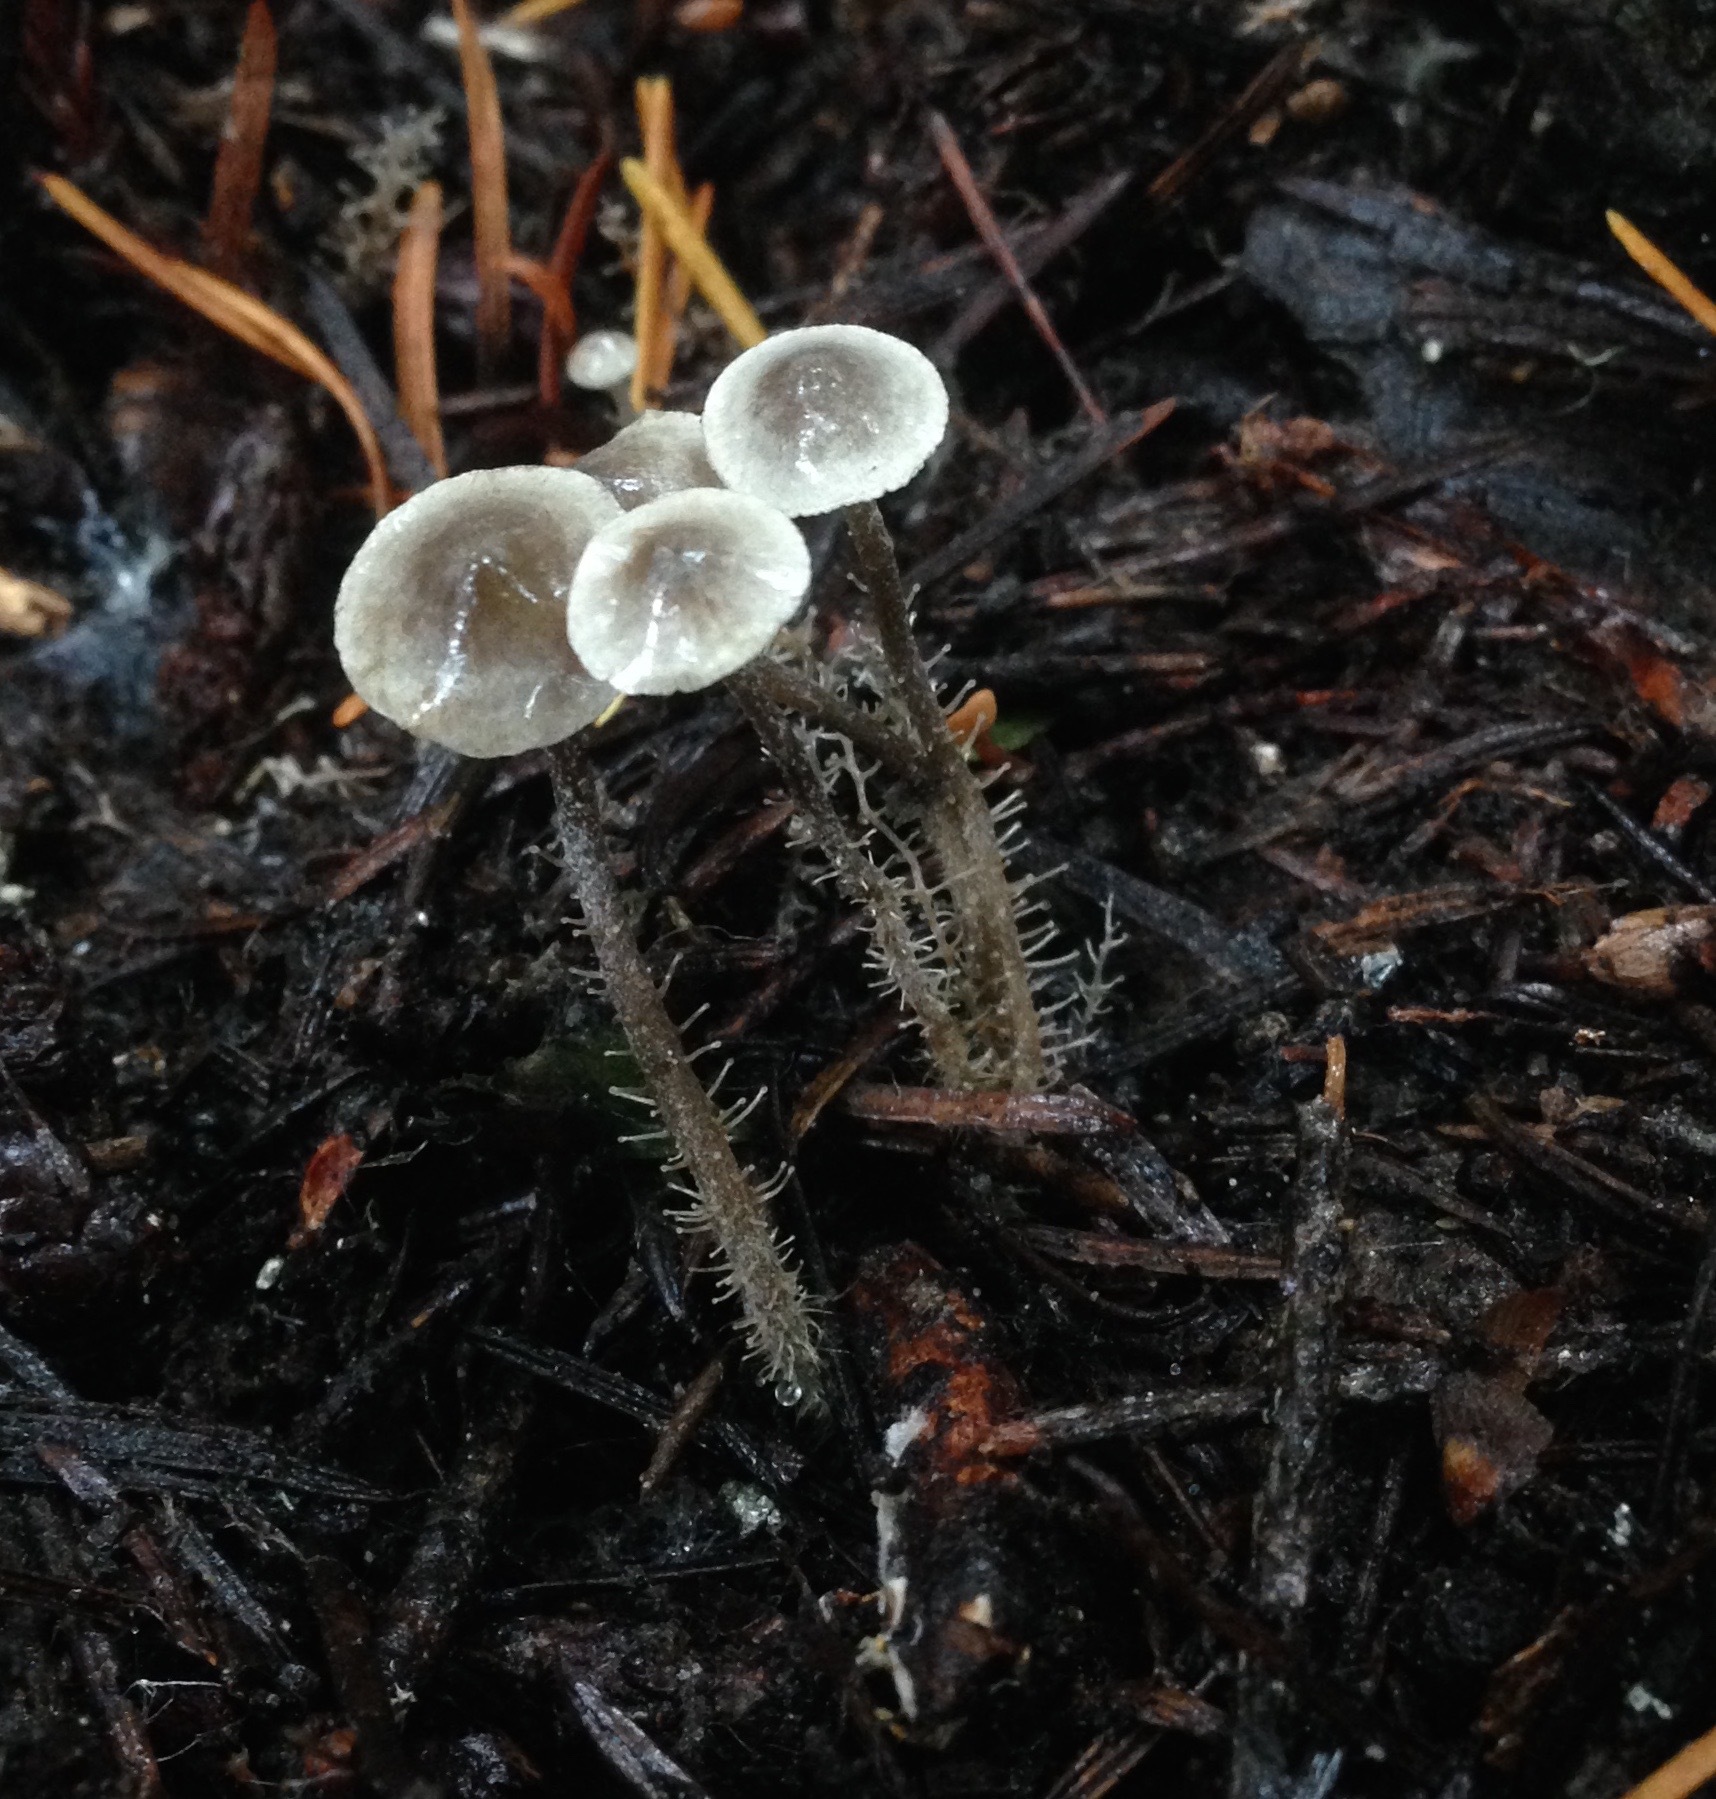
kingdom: Fungi
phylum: Basidiomycota
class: Agaricomycetes
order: Agaricales
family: Tricholomataceae
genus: Dendrocollybia
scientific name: Dendrocollybia racemosa
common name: Branched shanklet
